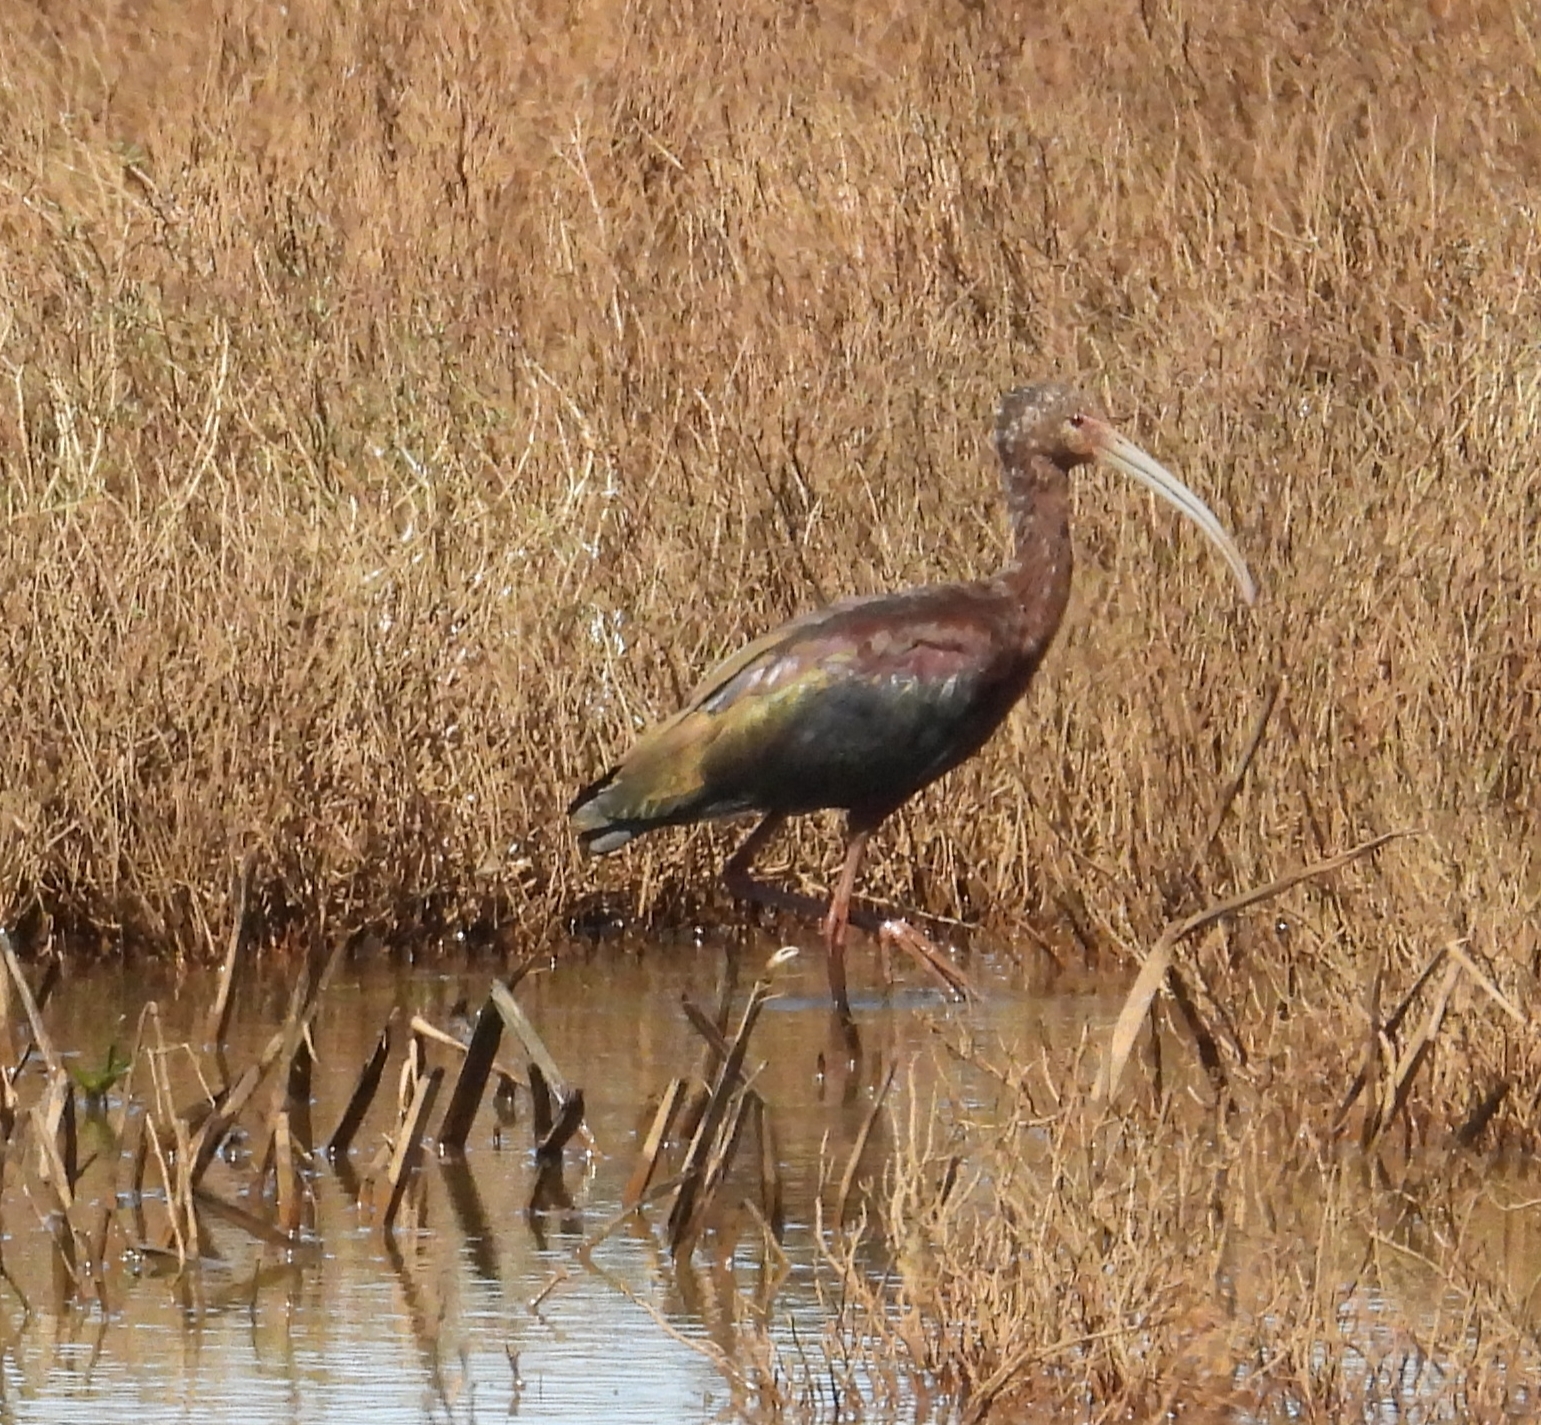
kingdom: Animalia
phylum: Chordata
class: Aves
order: Pelecaniformes
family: Threskiornithidae
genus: Plegadis
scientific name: Plegadis chihi
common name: White-faced ibis
